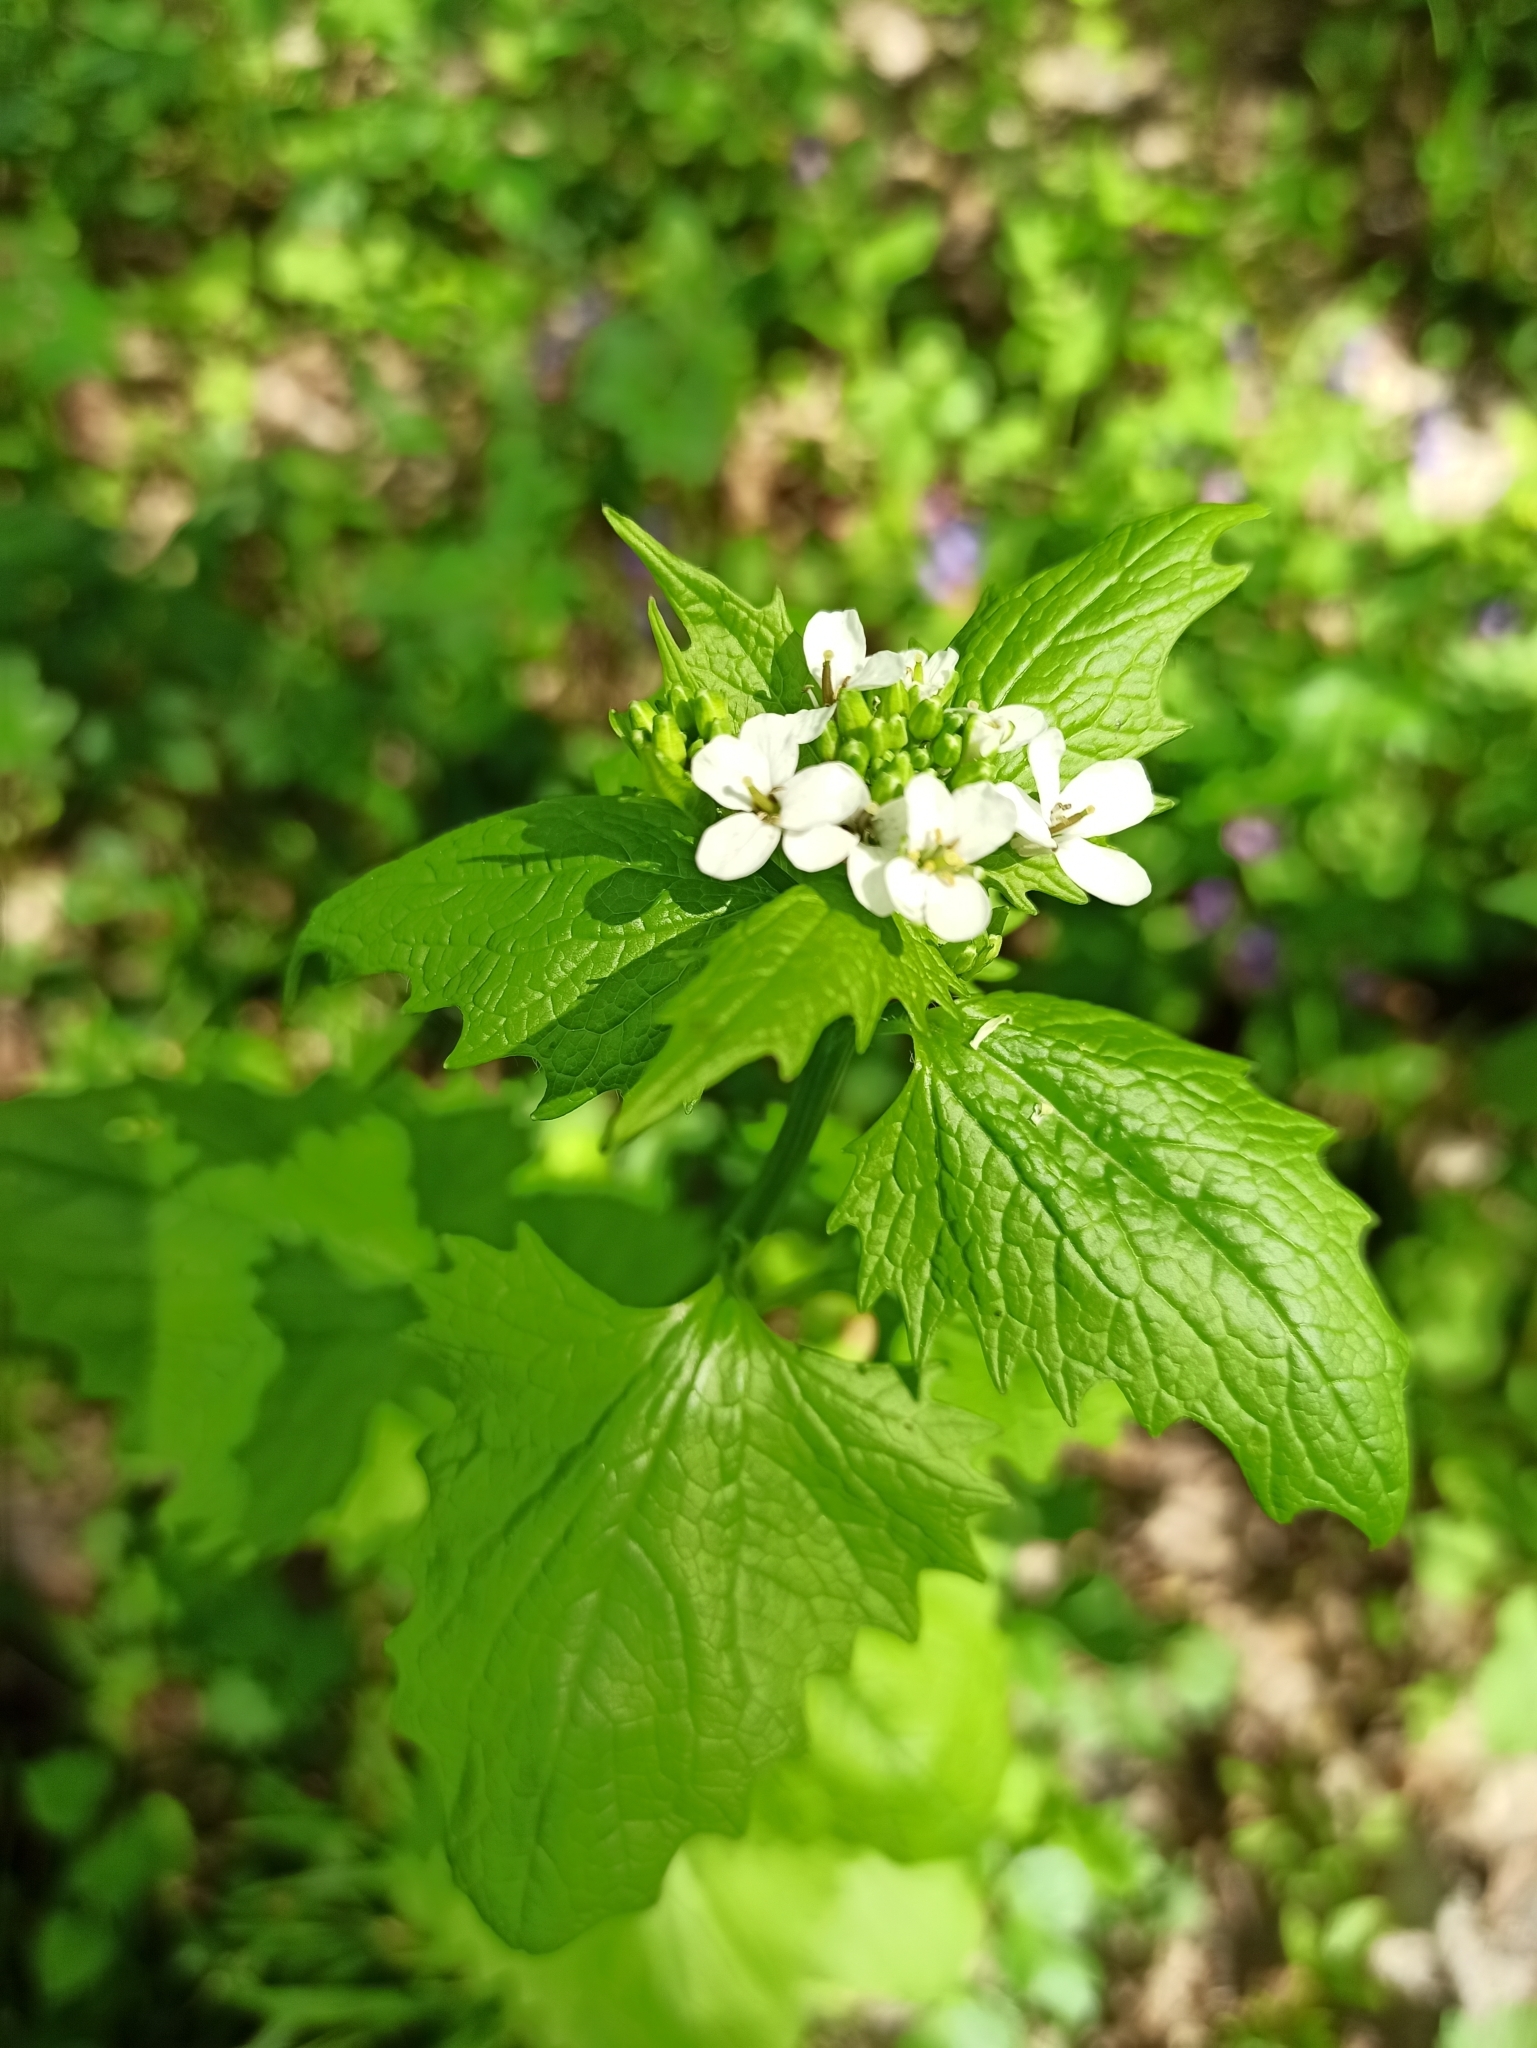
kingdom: Plantae
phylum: Tracheophyta
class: Magnoliopsida
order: Brassicales
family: Brassicaceae
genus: Alliaria
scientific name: Alliaria petiolata
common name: Garlic mustard
